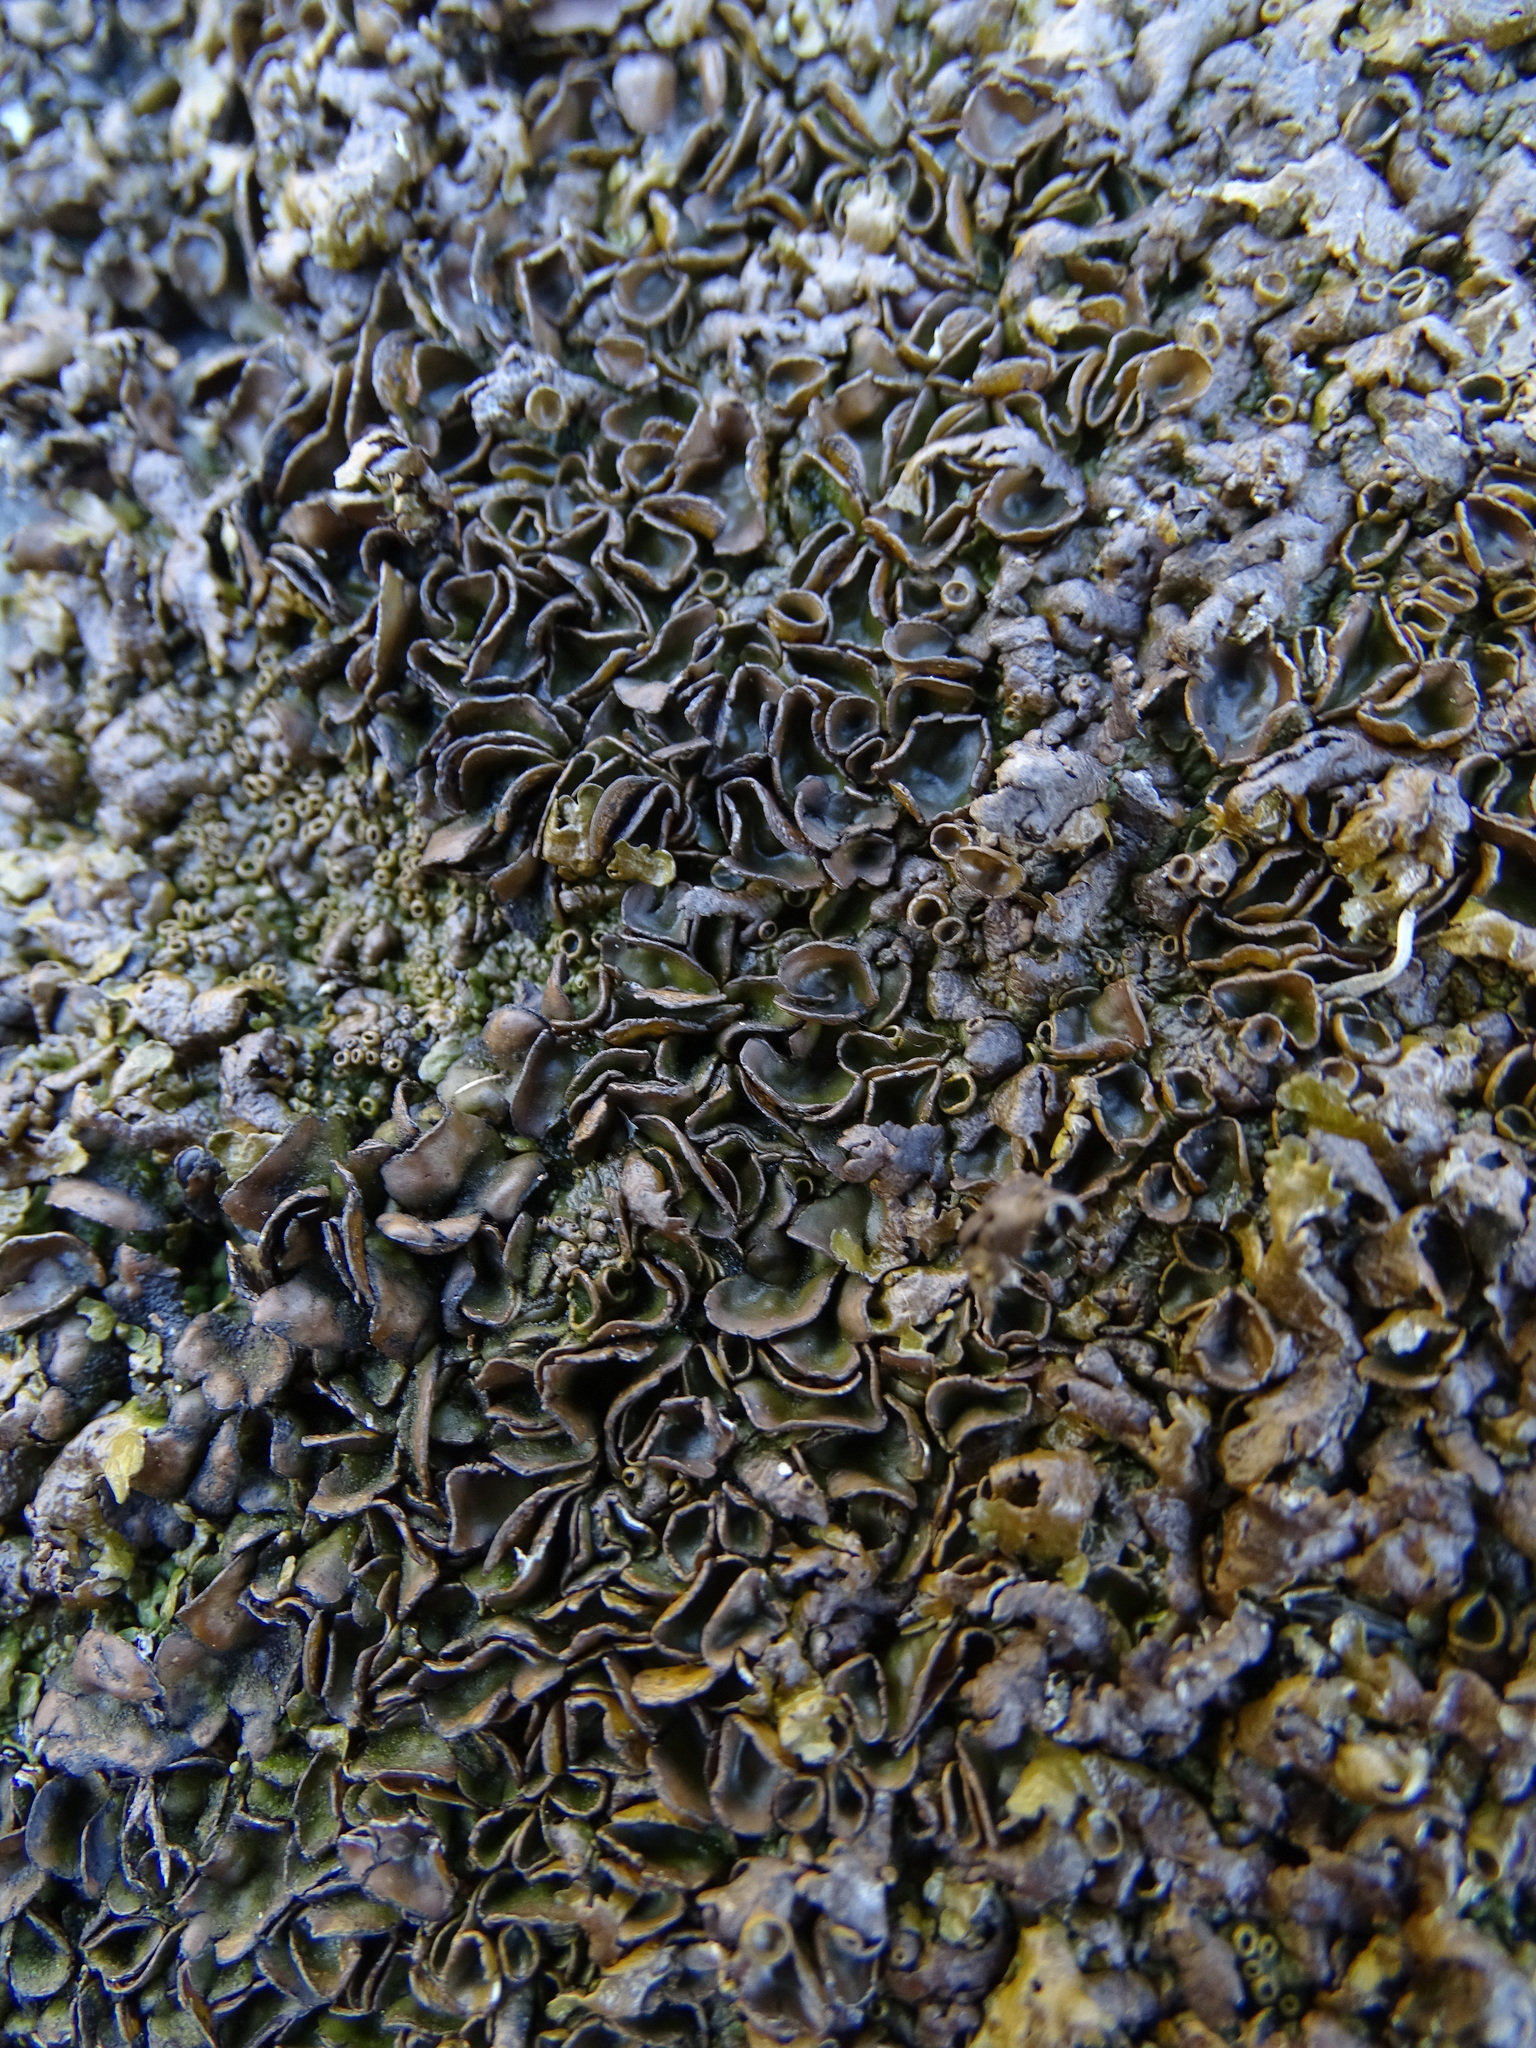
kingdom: Fungi
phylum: Ascomycota
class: Lecanoromycetes
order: Lecanorales
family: Parmeliaceae
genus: Xanthoparmelia
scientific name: Xanthoparmelia pulla
